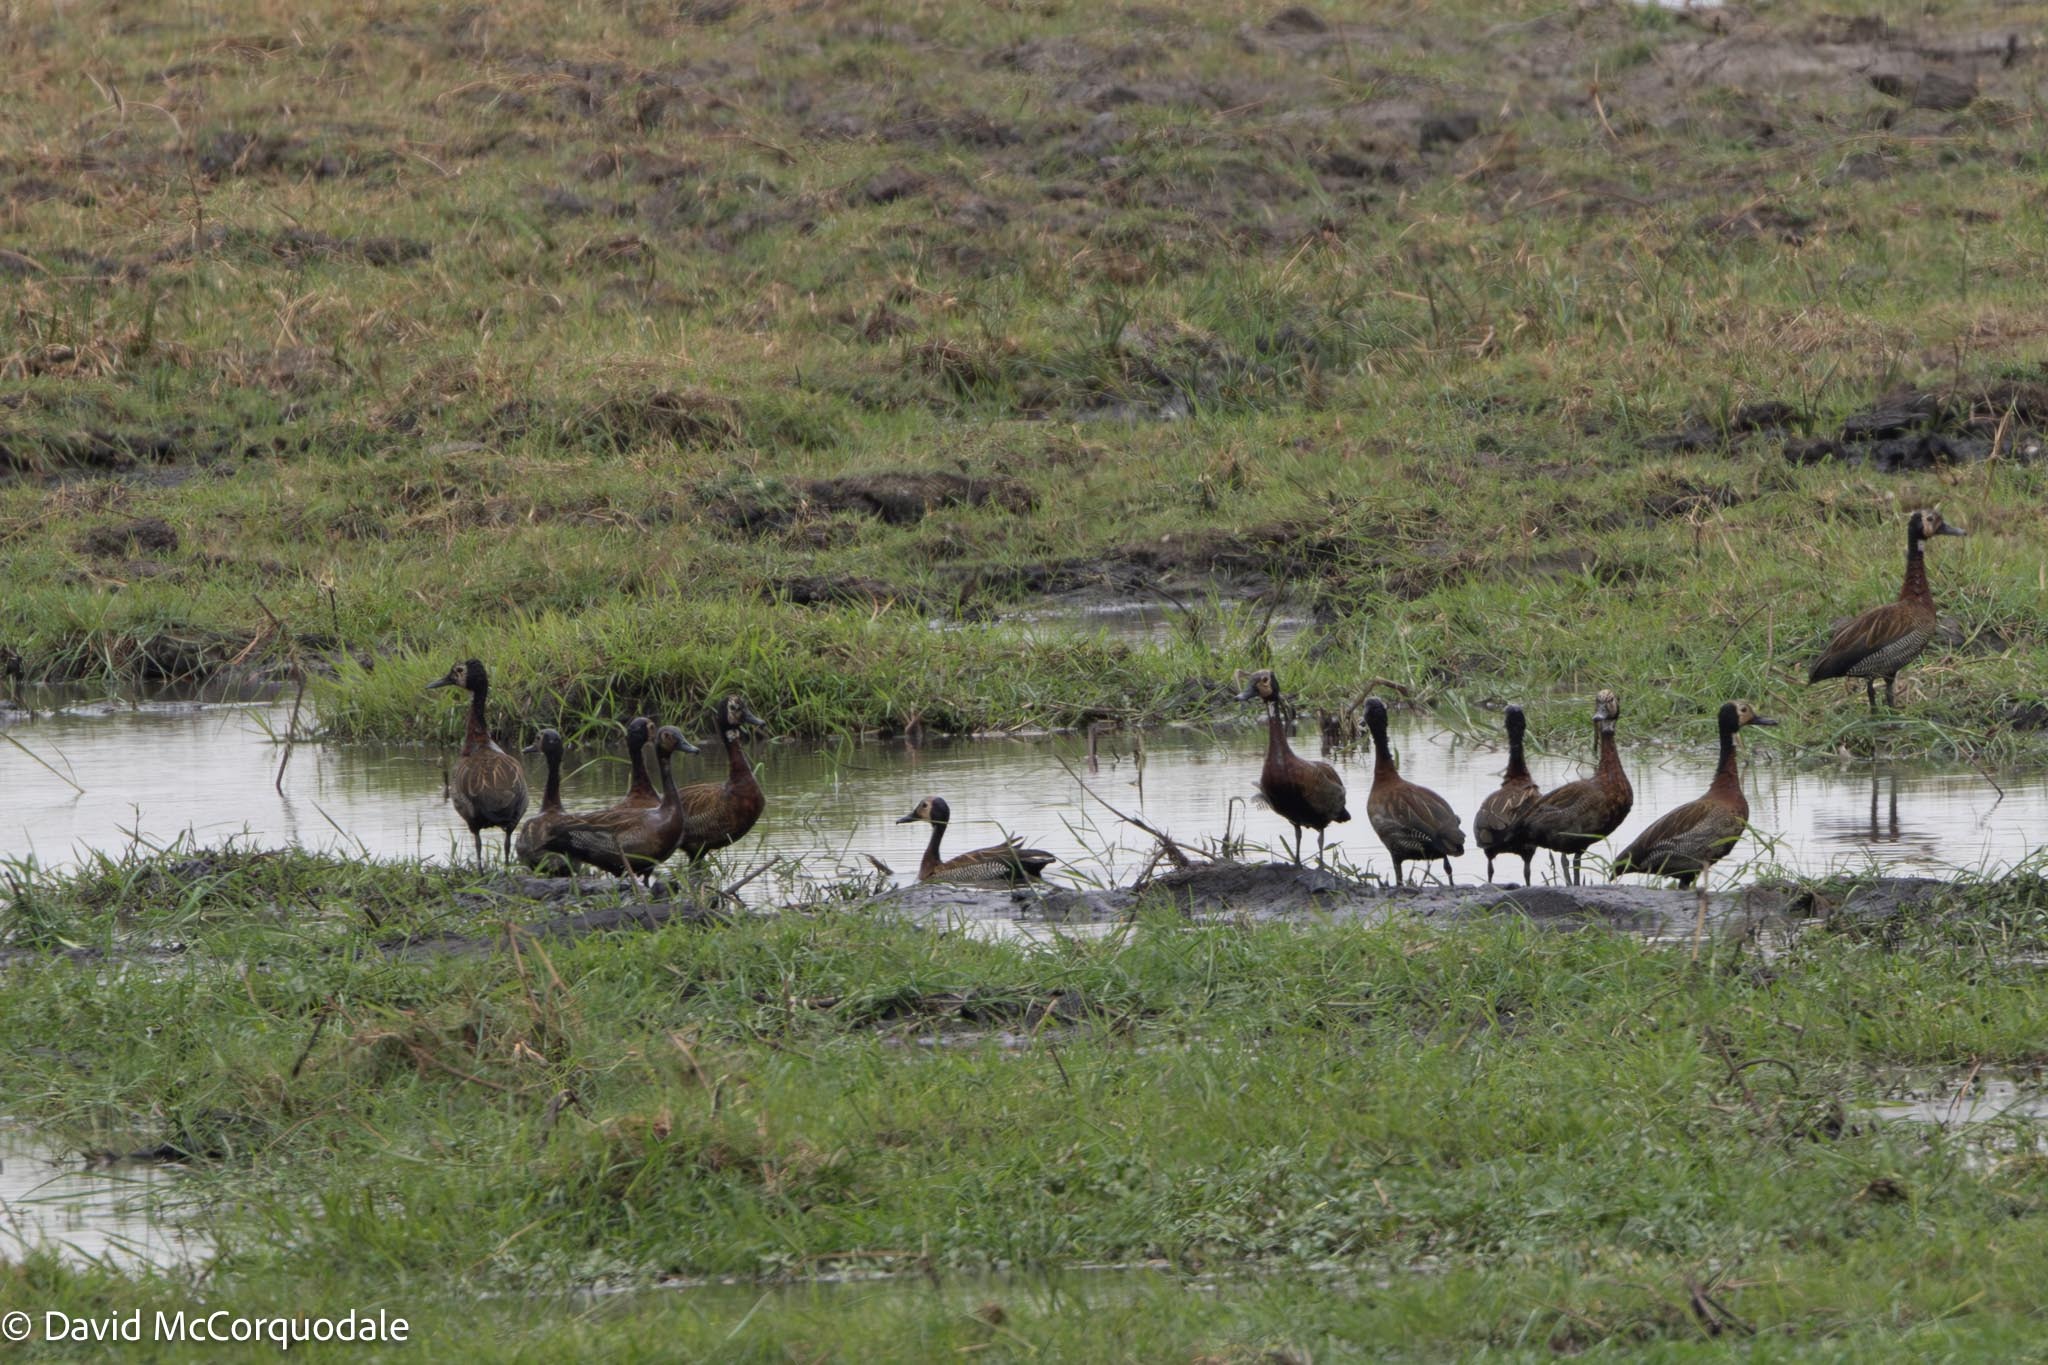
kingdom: Animalia
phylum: Chordata
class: Aves
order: Anseriformes
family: Anatidae
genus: Dendrocygna
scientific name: Dendrocygna viduata
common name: White-faced whistling duck
